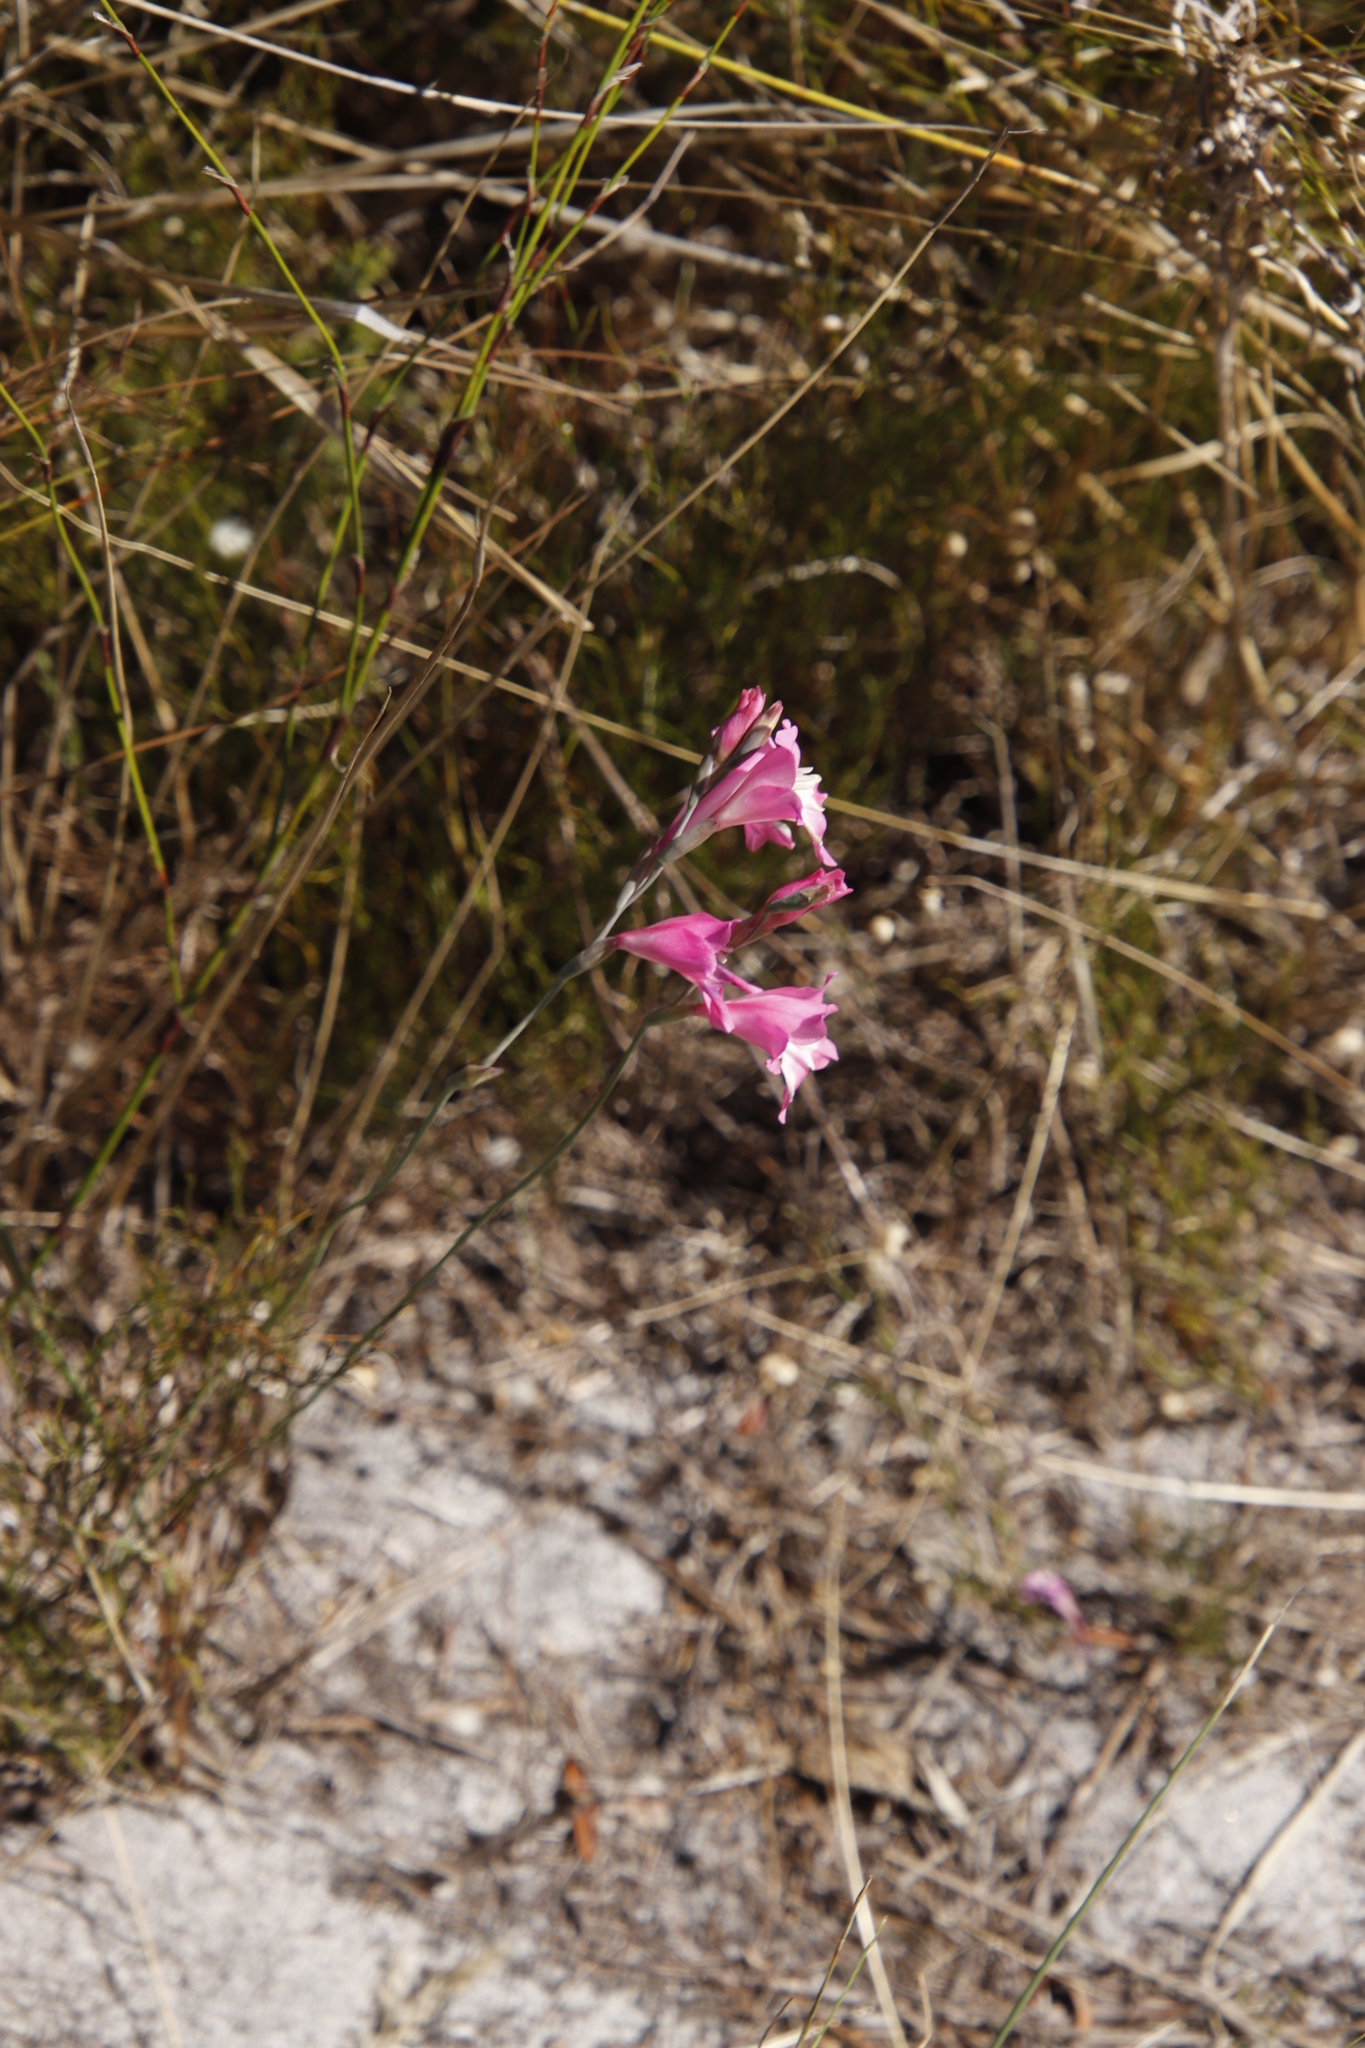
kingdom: Plantae
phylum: Tracheophyta
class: Liliopsida
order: Asparagales
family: Iridaceae
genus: Gladiolus
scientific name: Gladiolus brevifolius
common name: March pypie
